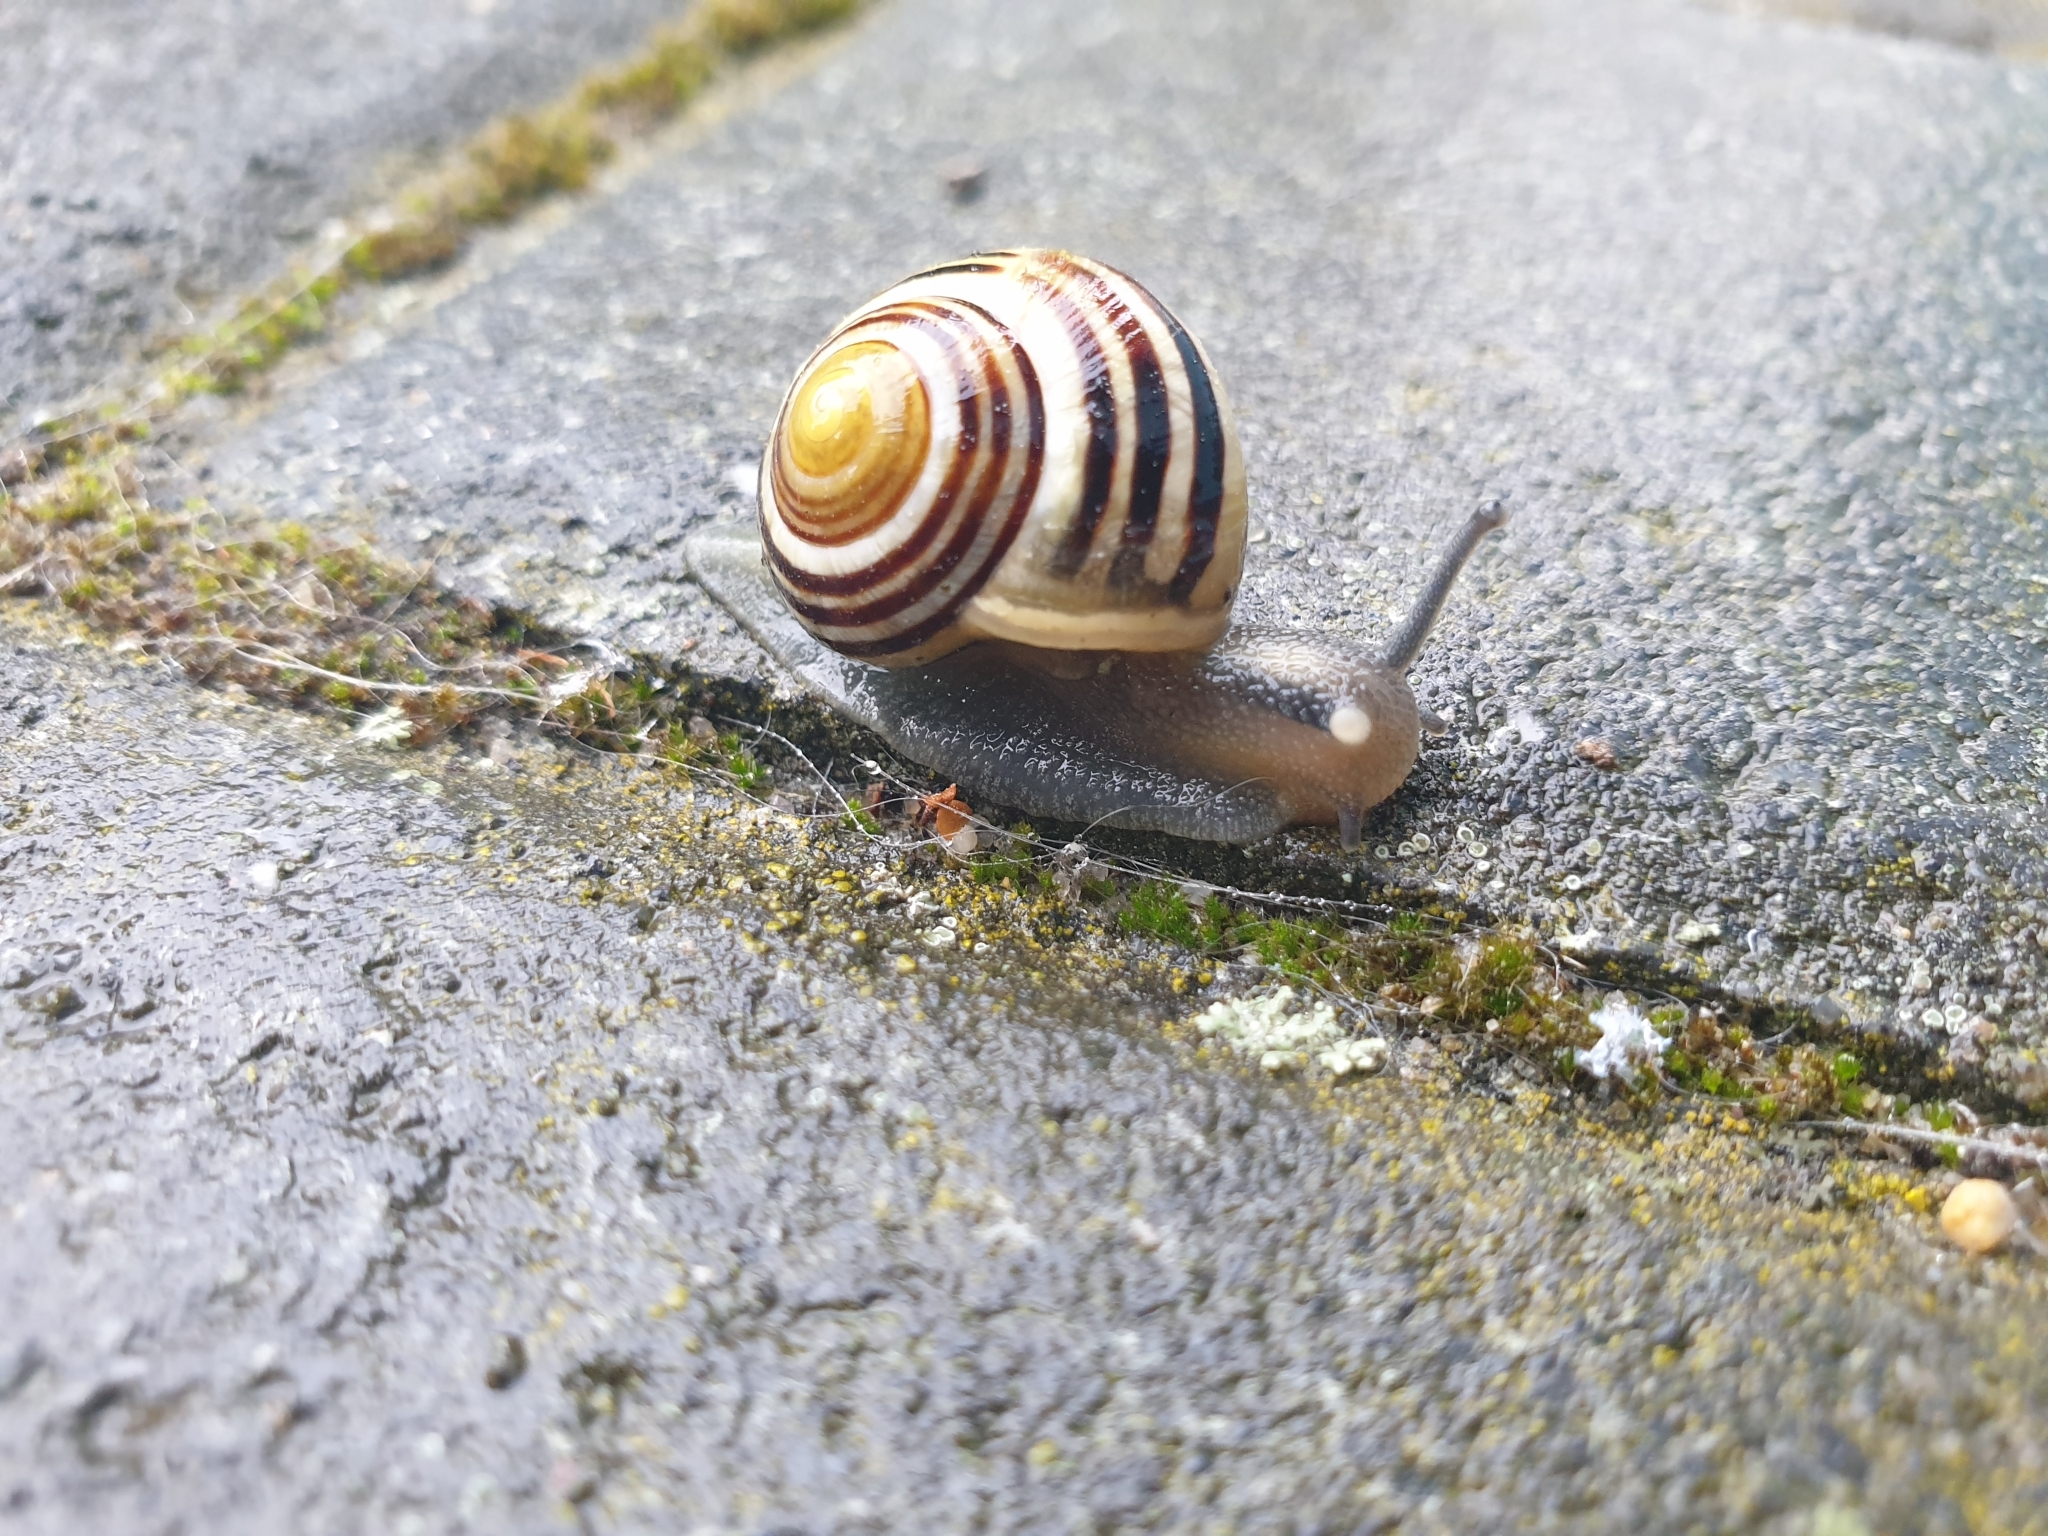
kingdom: Animalia
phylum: Mollusca
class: Gastropoda
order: Stylommatophora
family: Helicidae
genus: Cepaea
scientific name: Cepaea
